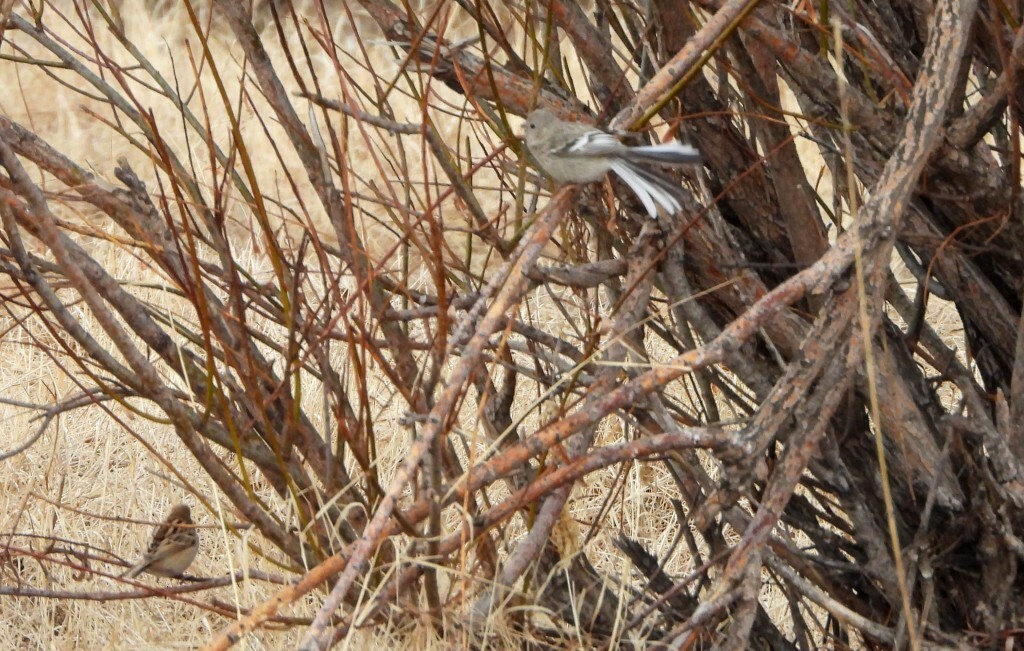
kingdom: Animalia
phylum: Chordata
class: Aves
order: Passeriformes
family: Fringillidae
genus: Carpodacus
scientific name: Carpodacus sibiricus
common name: Long-tailed rosefinch
